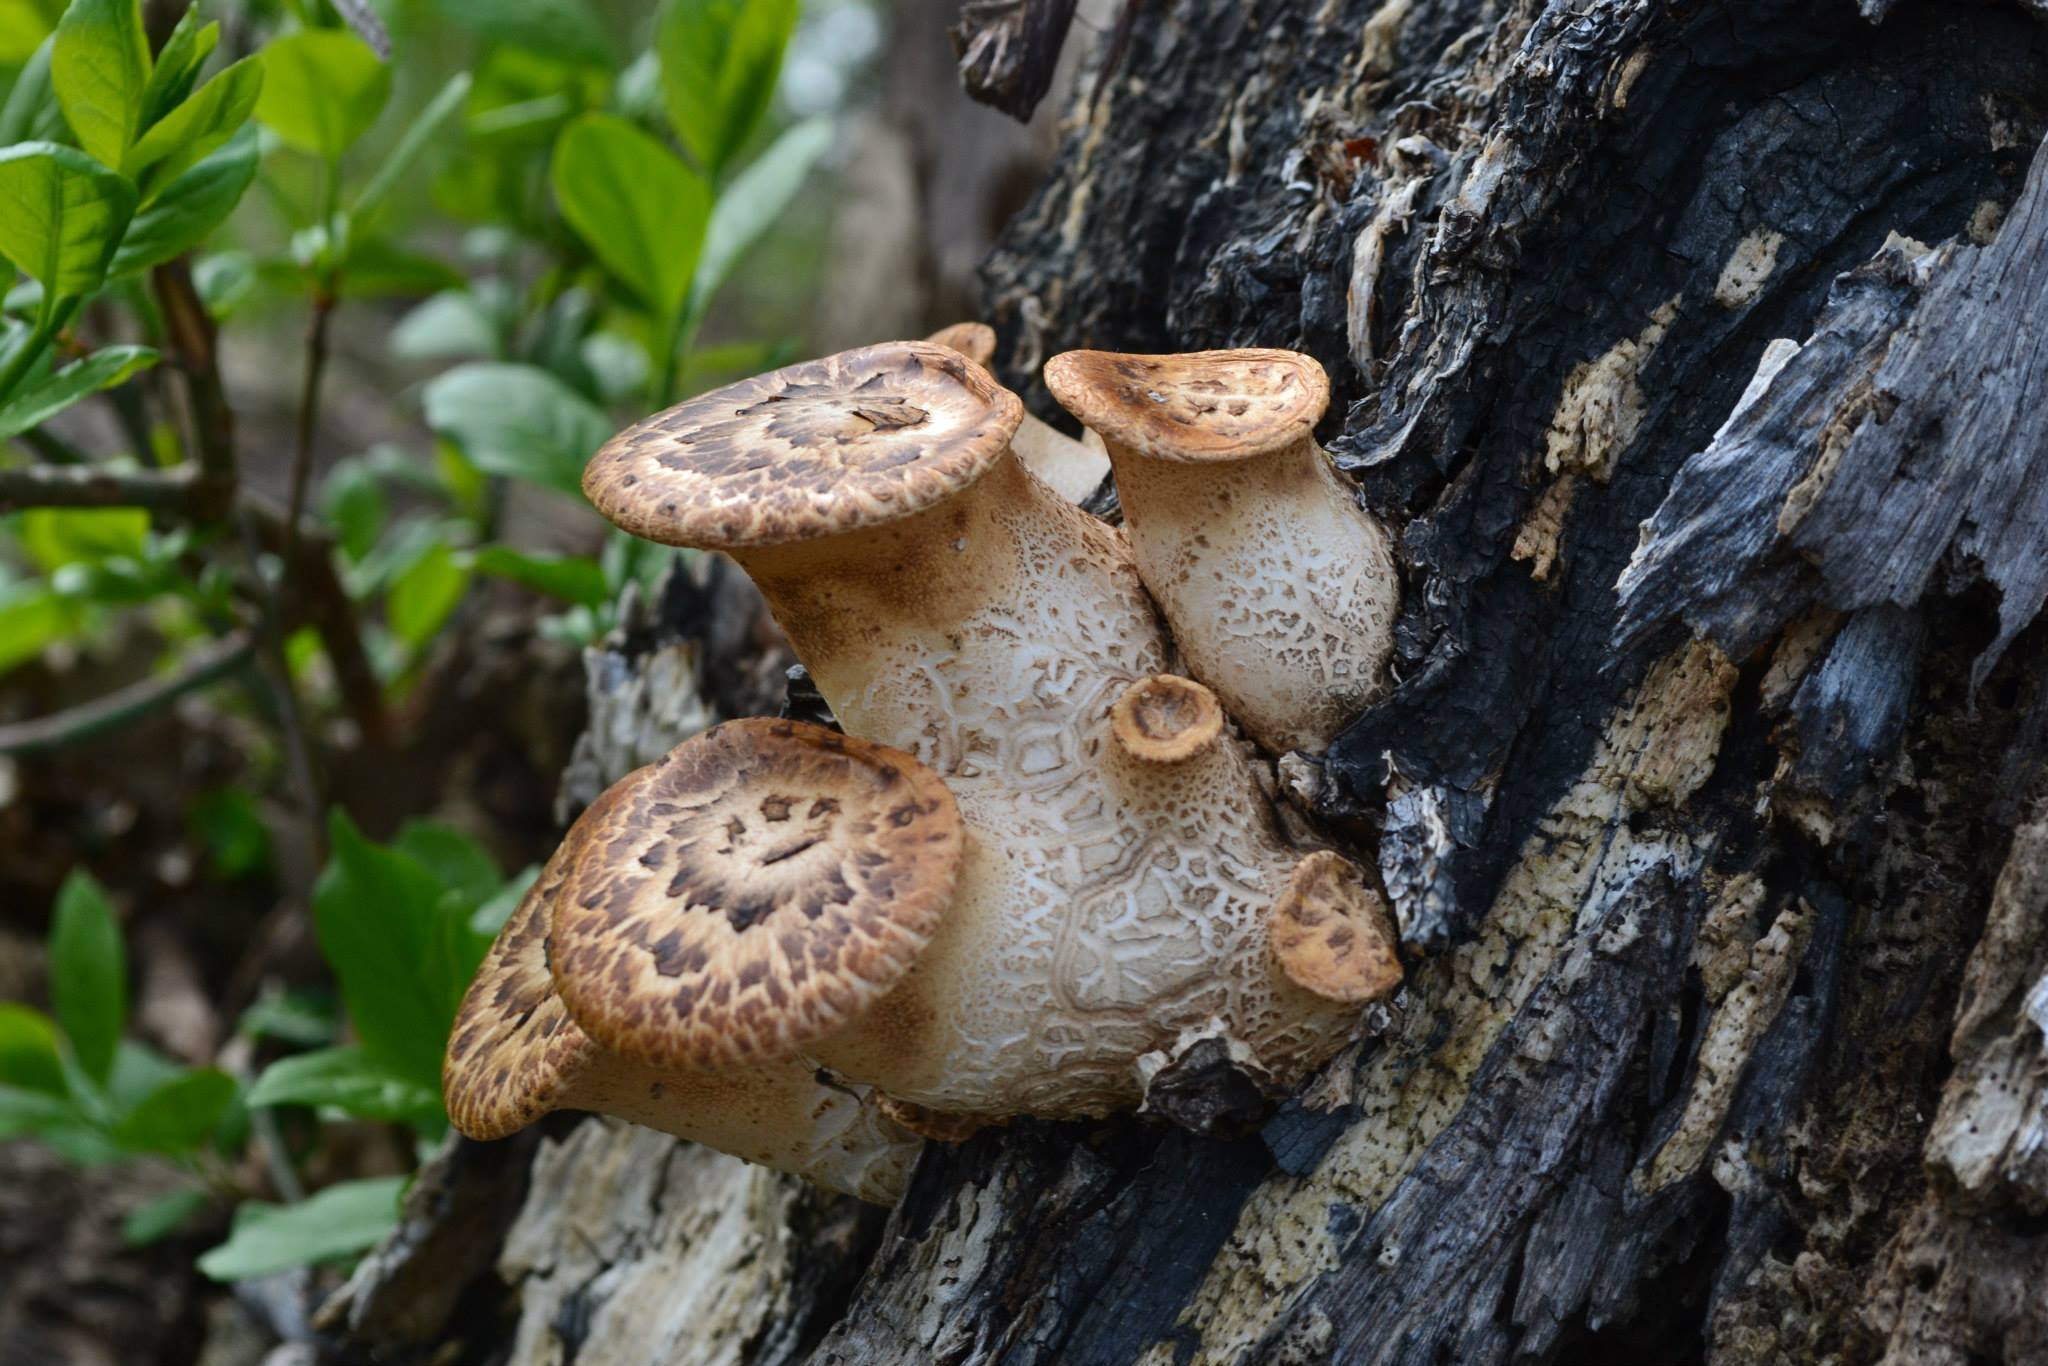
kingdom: Fungi
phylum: Basidiomycota
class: Agaricomycetes
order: Polyporales
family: Polyporaceae
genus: Cerioporus
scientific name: Cerioporus squamosus
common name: Dryad's saddle
